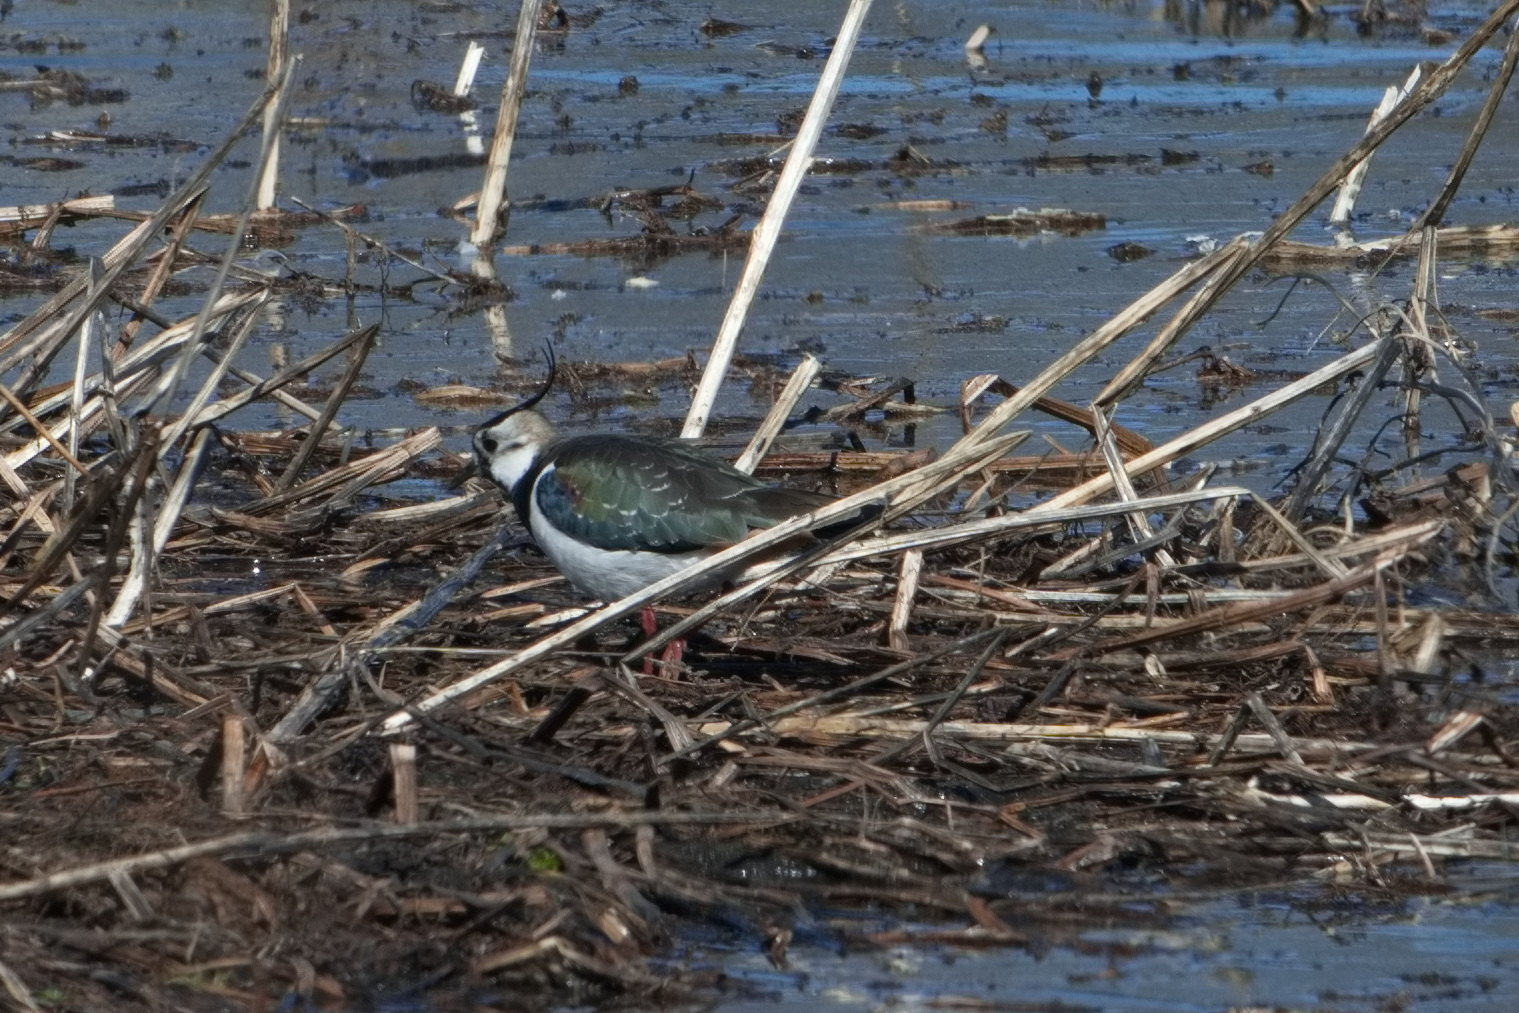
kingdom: Animalia
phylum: Chordata
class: Aves
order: Charadriiformes
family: Charadriidae
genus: Vanellus
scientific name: Vanellus vanellus
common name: Northern lapwing
